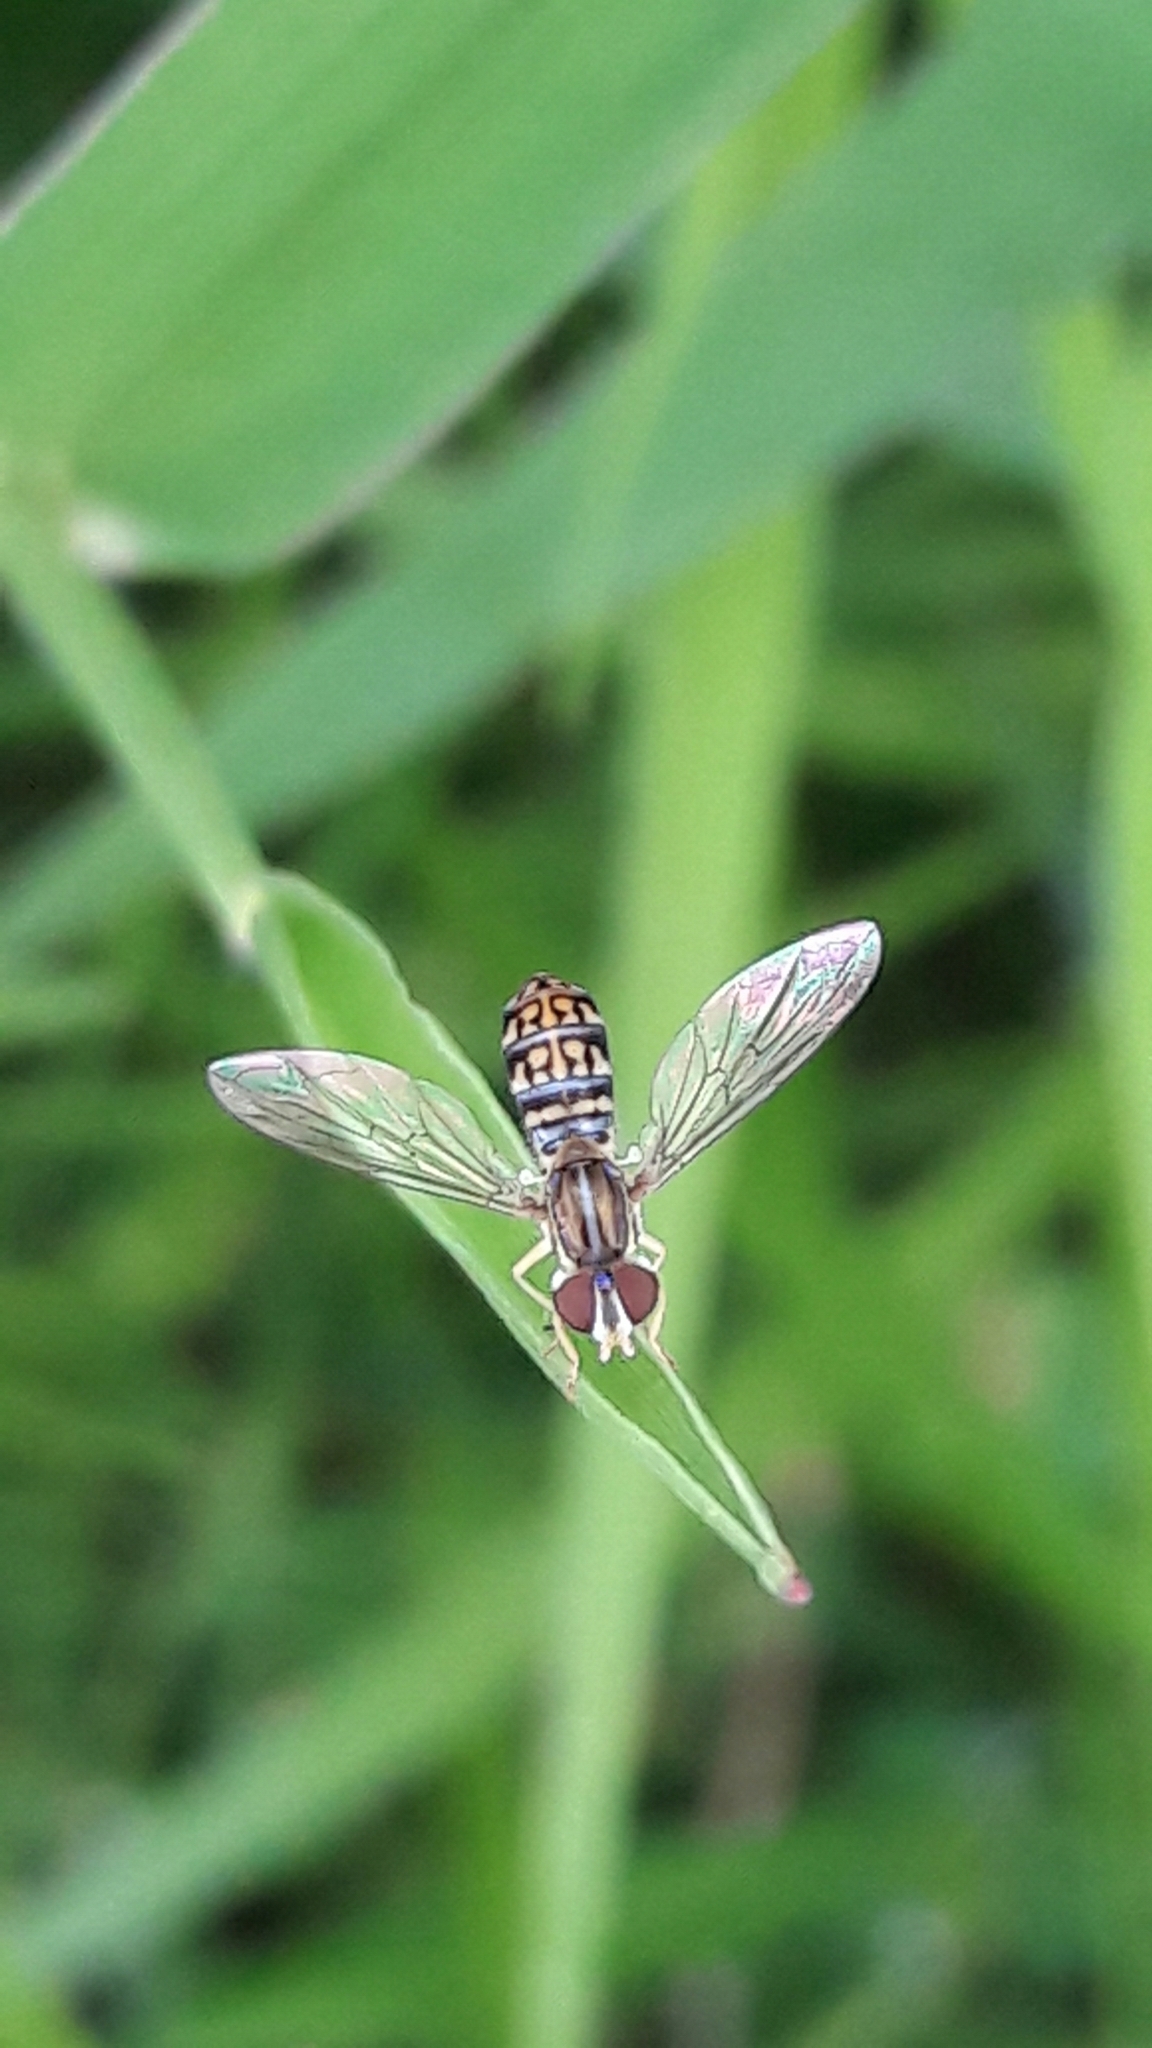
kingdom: Animalia
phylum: Arthropoda
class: Insecta
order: Diptera
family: Syrphidae
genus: Toxomerus
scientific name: Toxomerus
